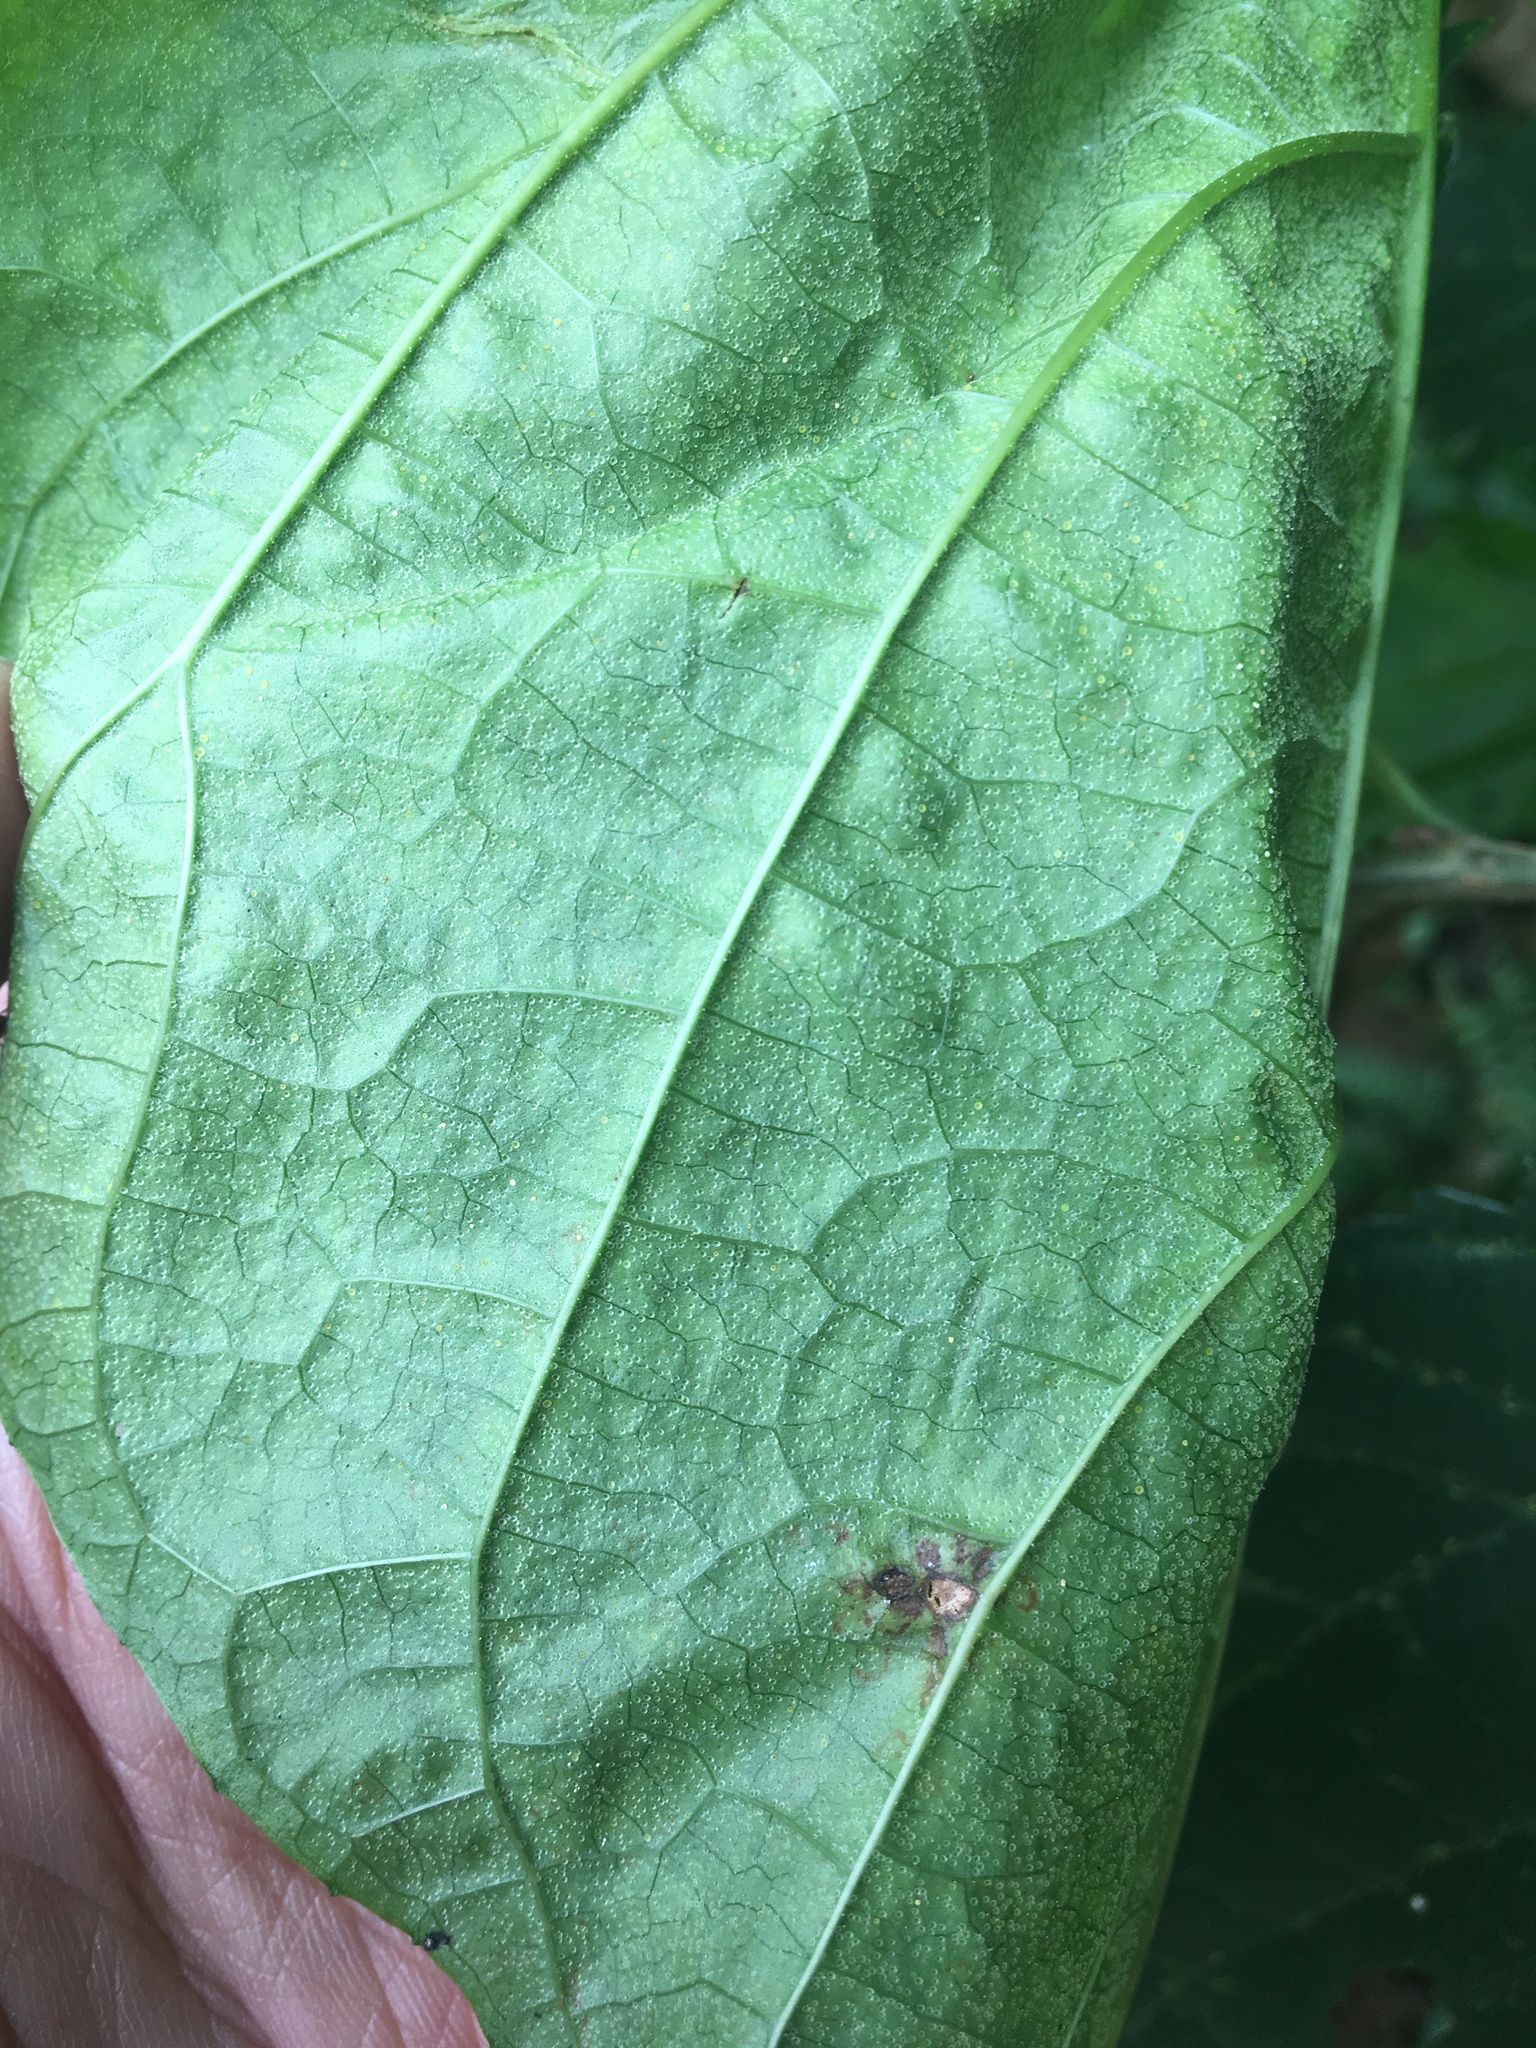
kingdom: Plantae
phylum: Tracheophyta
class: Magnoliopsida
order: Lamiales
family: Lamiaceae
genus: Clerodendrum
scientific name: Clerodendrum japonicum
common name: Japanese glorybower
